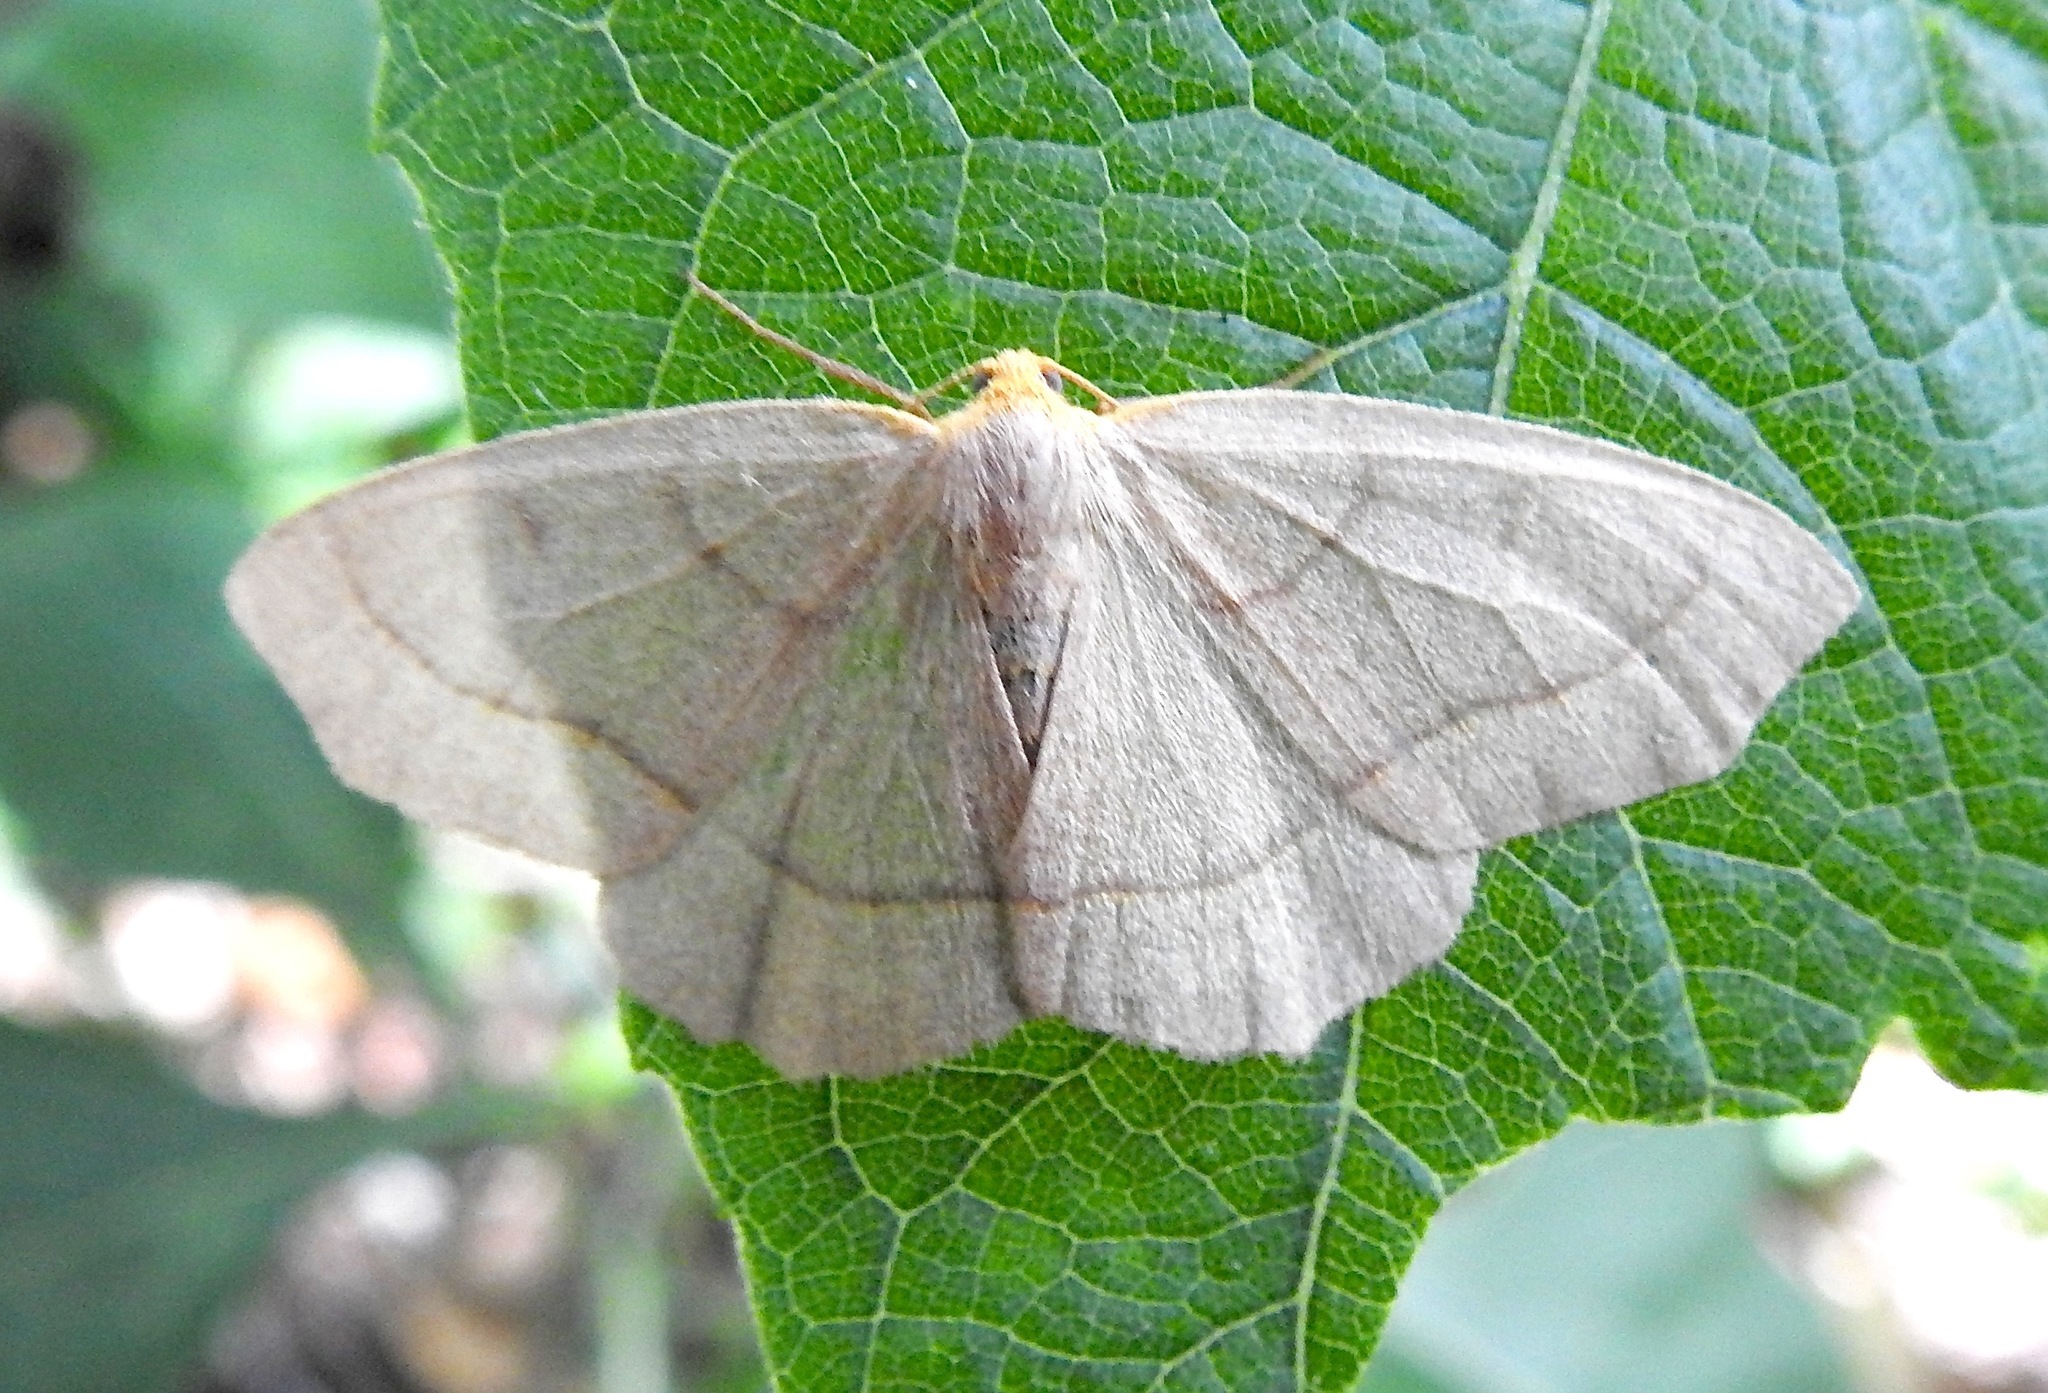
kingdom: Animalia
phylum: Arthropoda
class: Insecta
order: Lepidoptera
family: Geometridae
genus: Lambdina
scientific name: Lambdina pultaria
